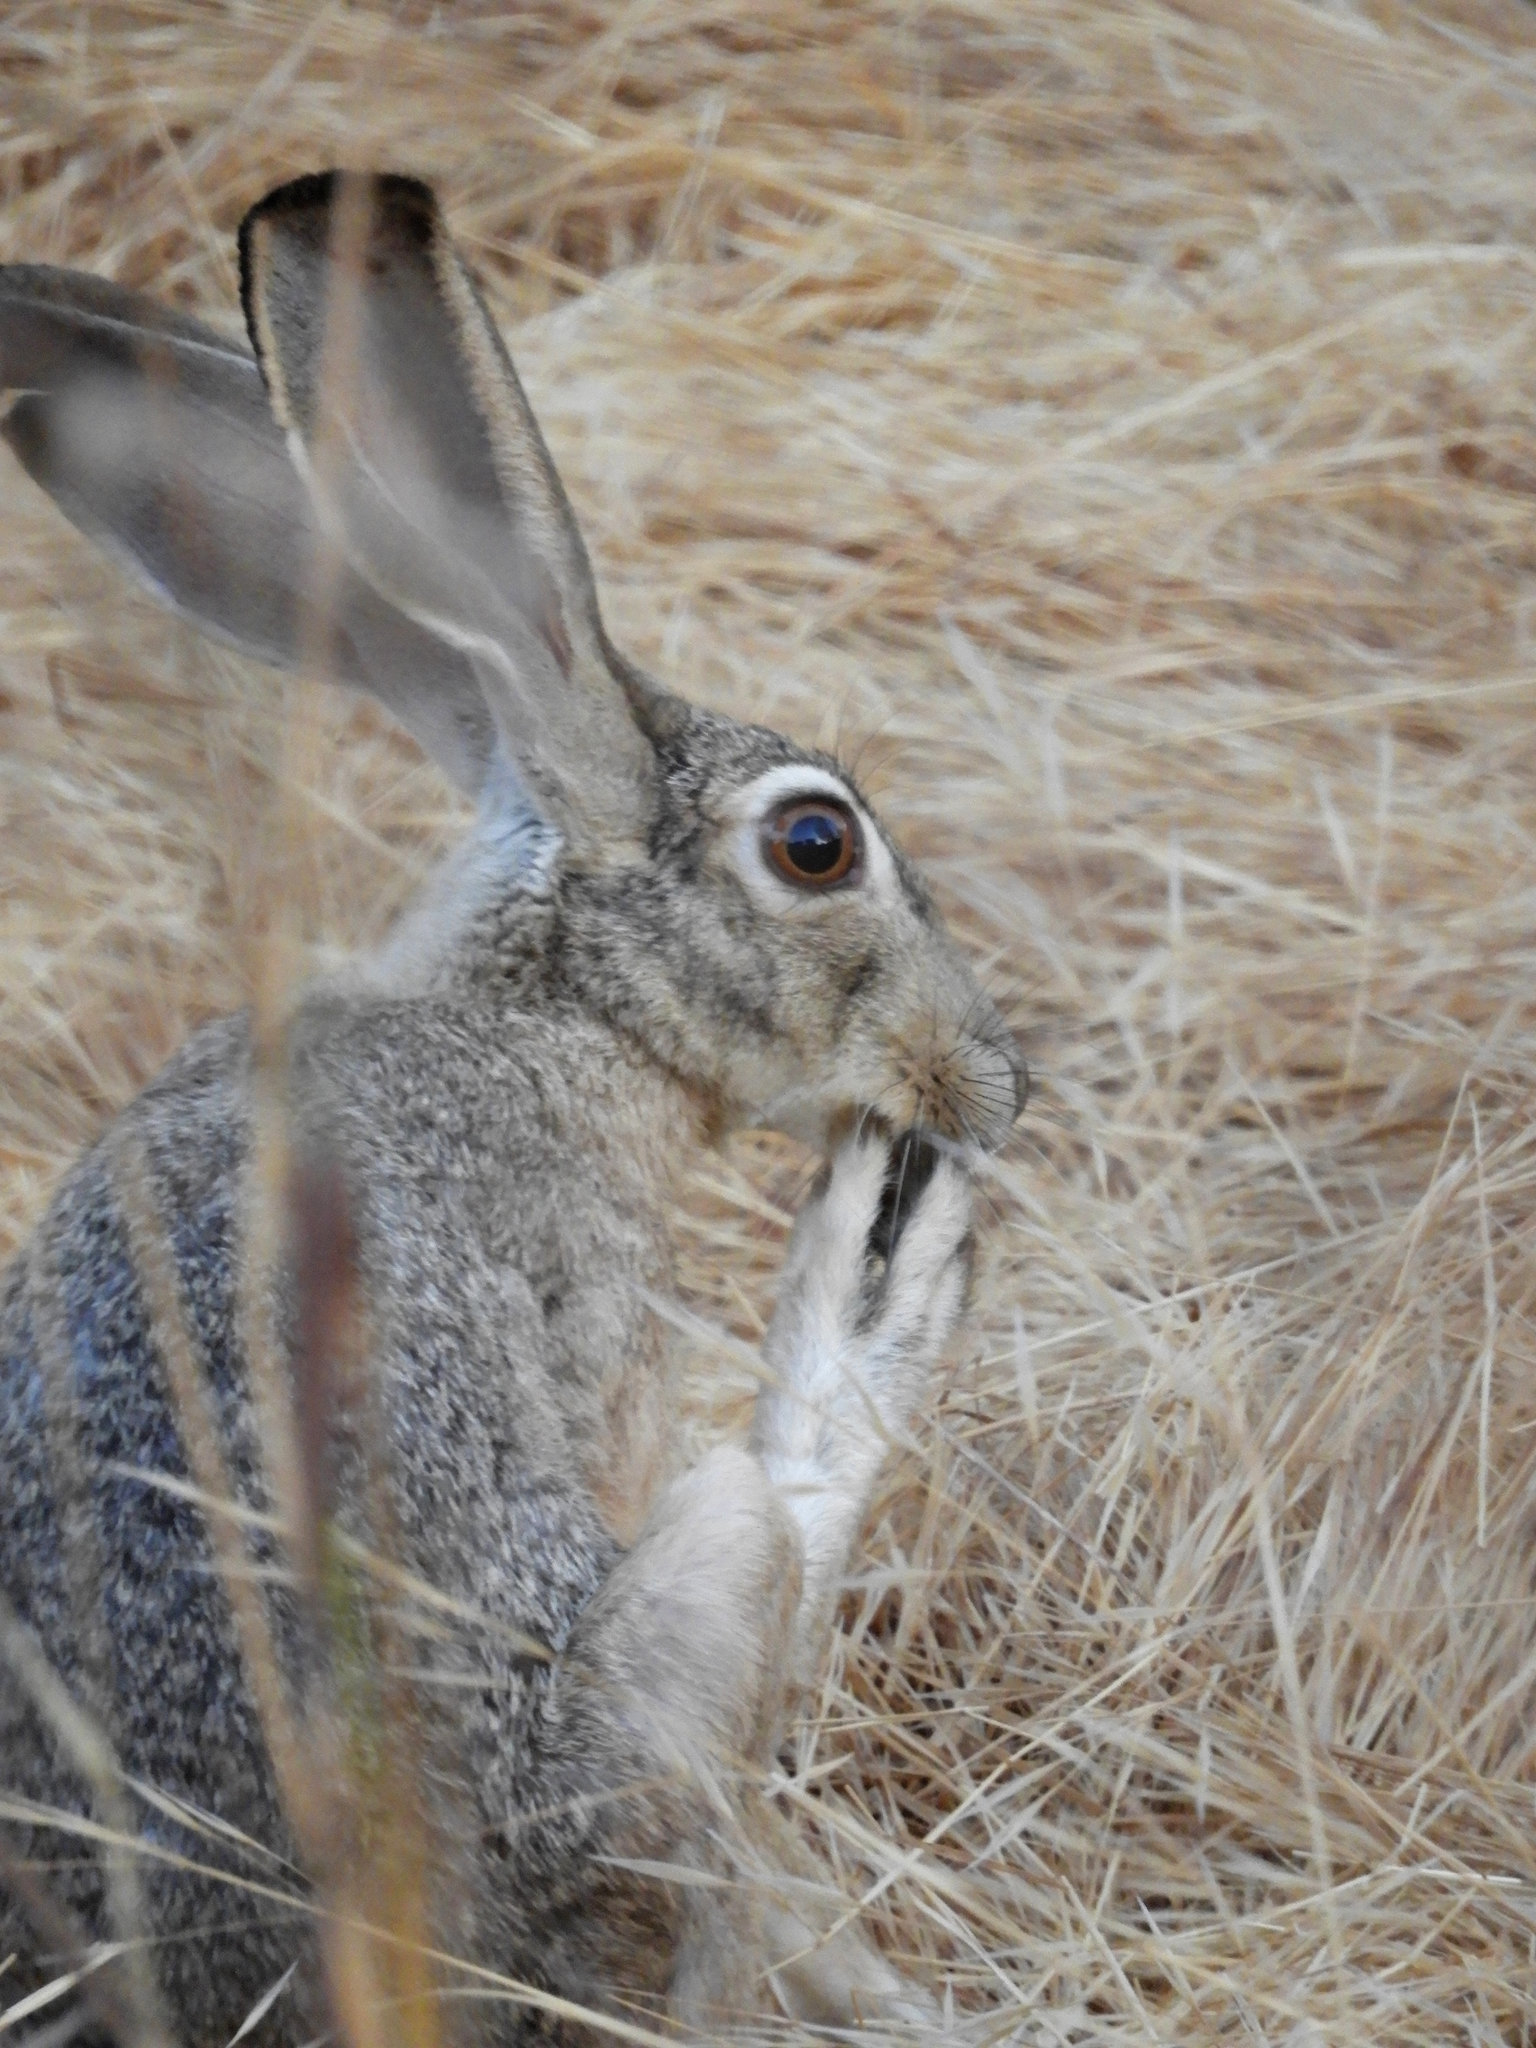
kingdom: Animalia
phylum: Chordata
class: Mammalia
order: Lagomorpha
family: Leporidae
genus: Lepus
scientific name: Lepus californicus
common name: Black-tailed jackrabbit
